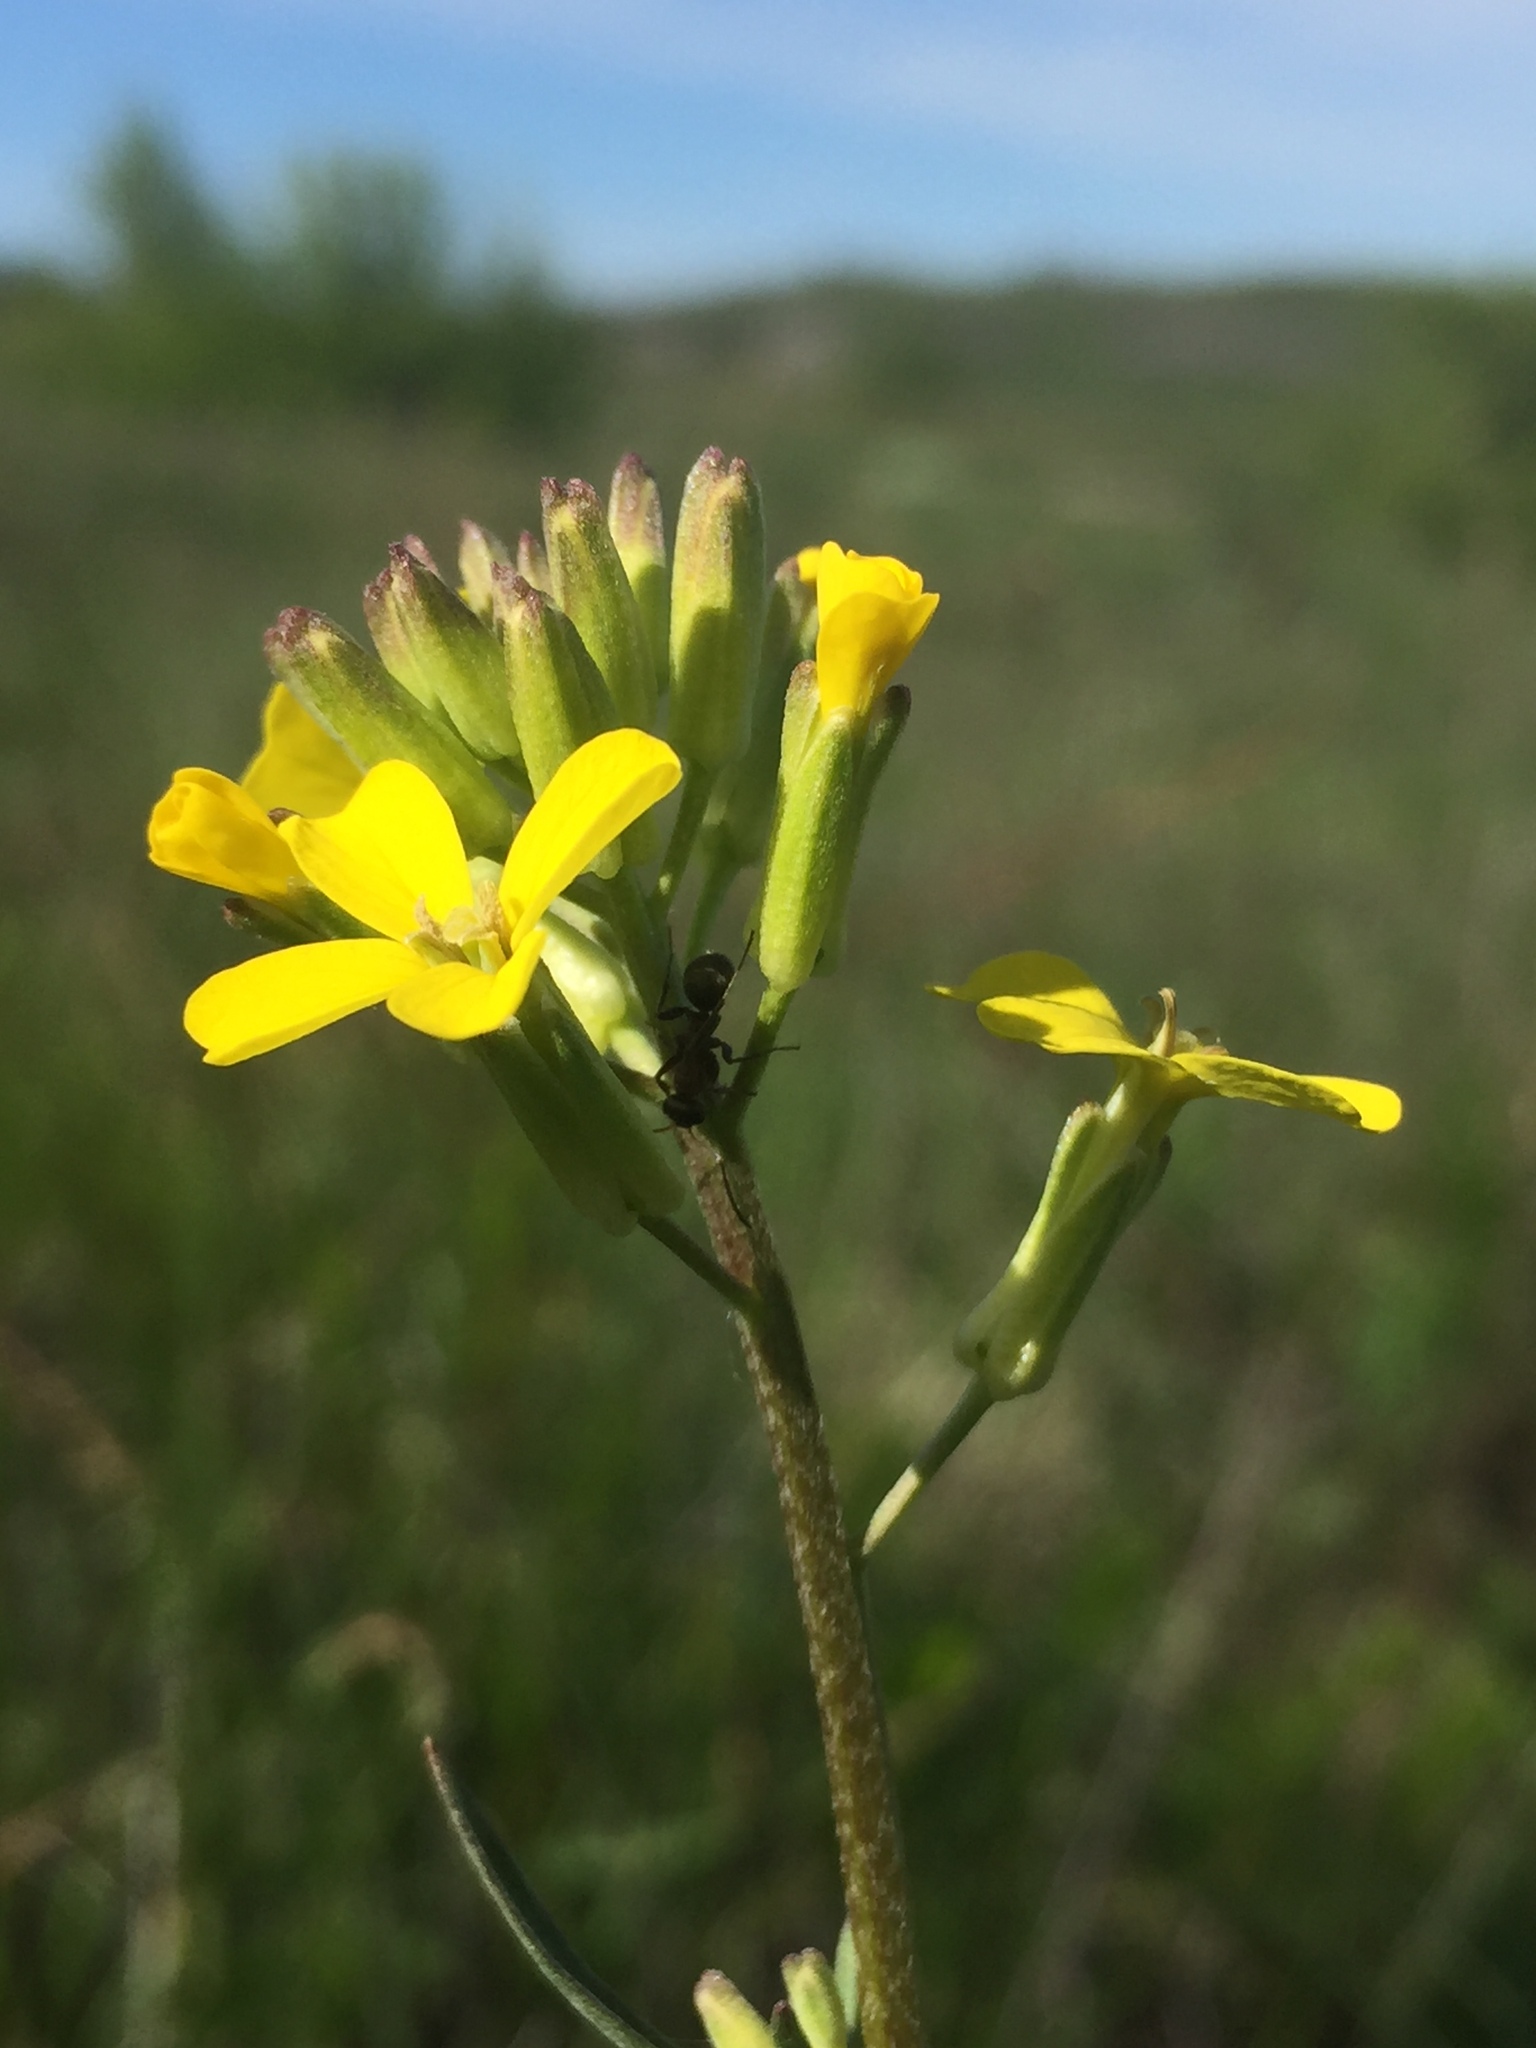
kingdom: Plantae
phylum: Tracheophyta
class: Magnoliopsida
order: Brassicales
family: Brassicaceae
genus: Erysimum
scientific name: Erysimum diffusum
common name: Diffuse wallflower
